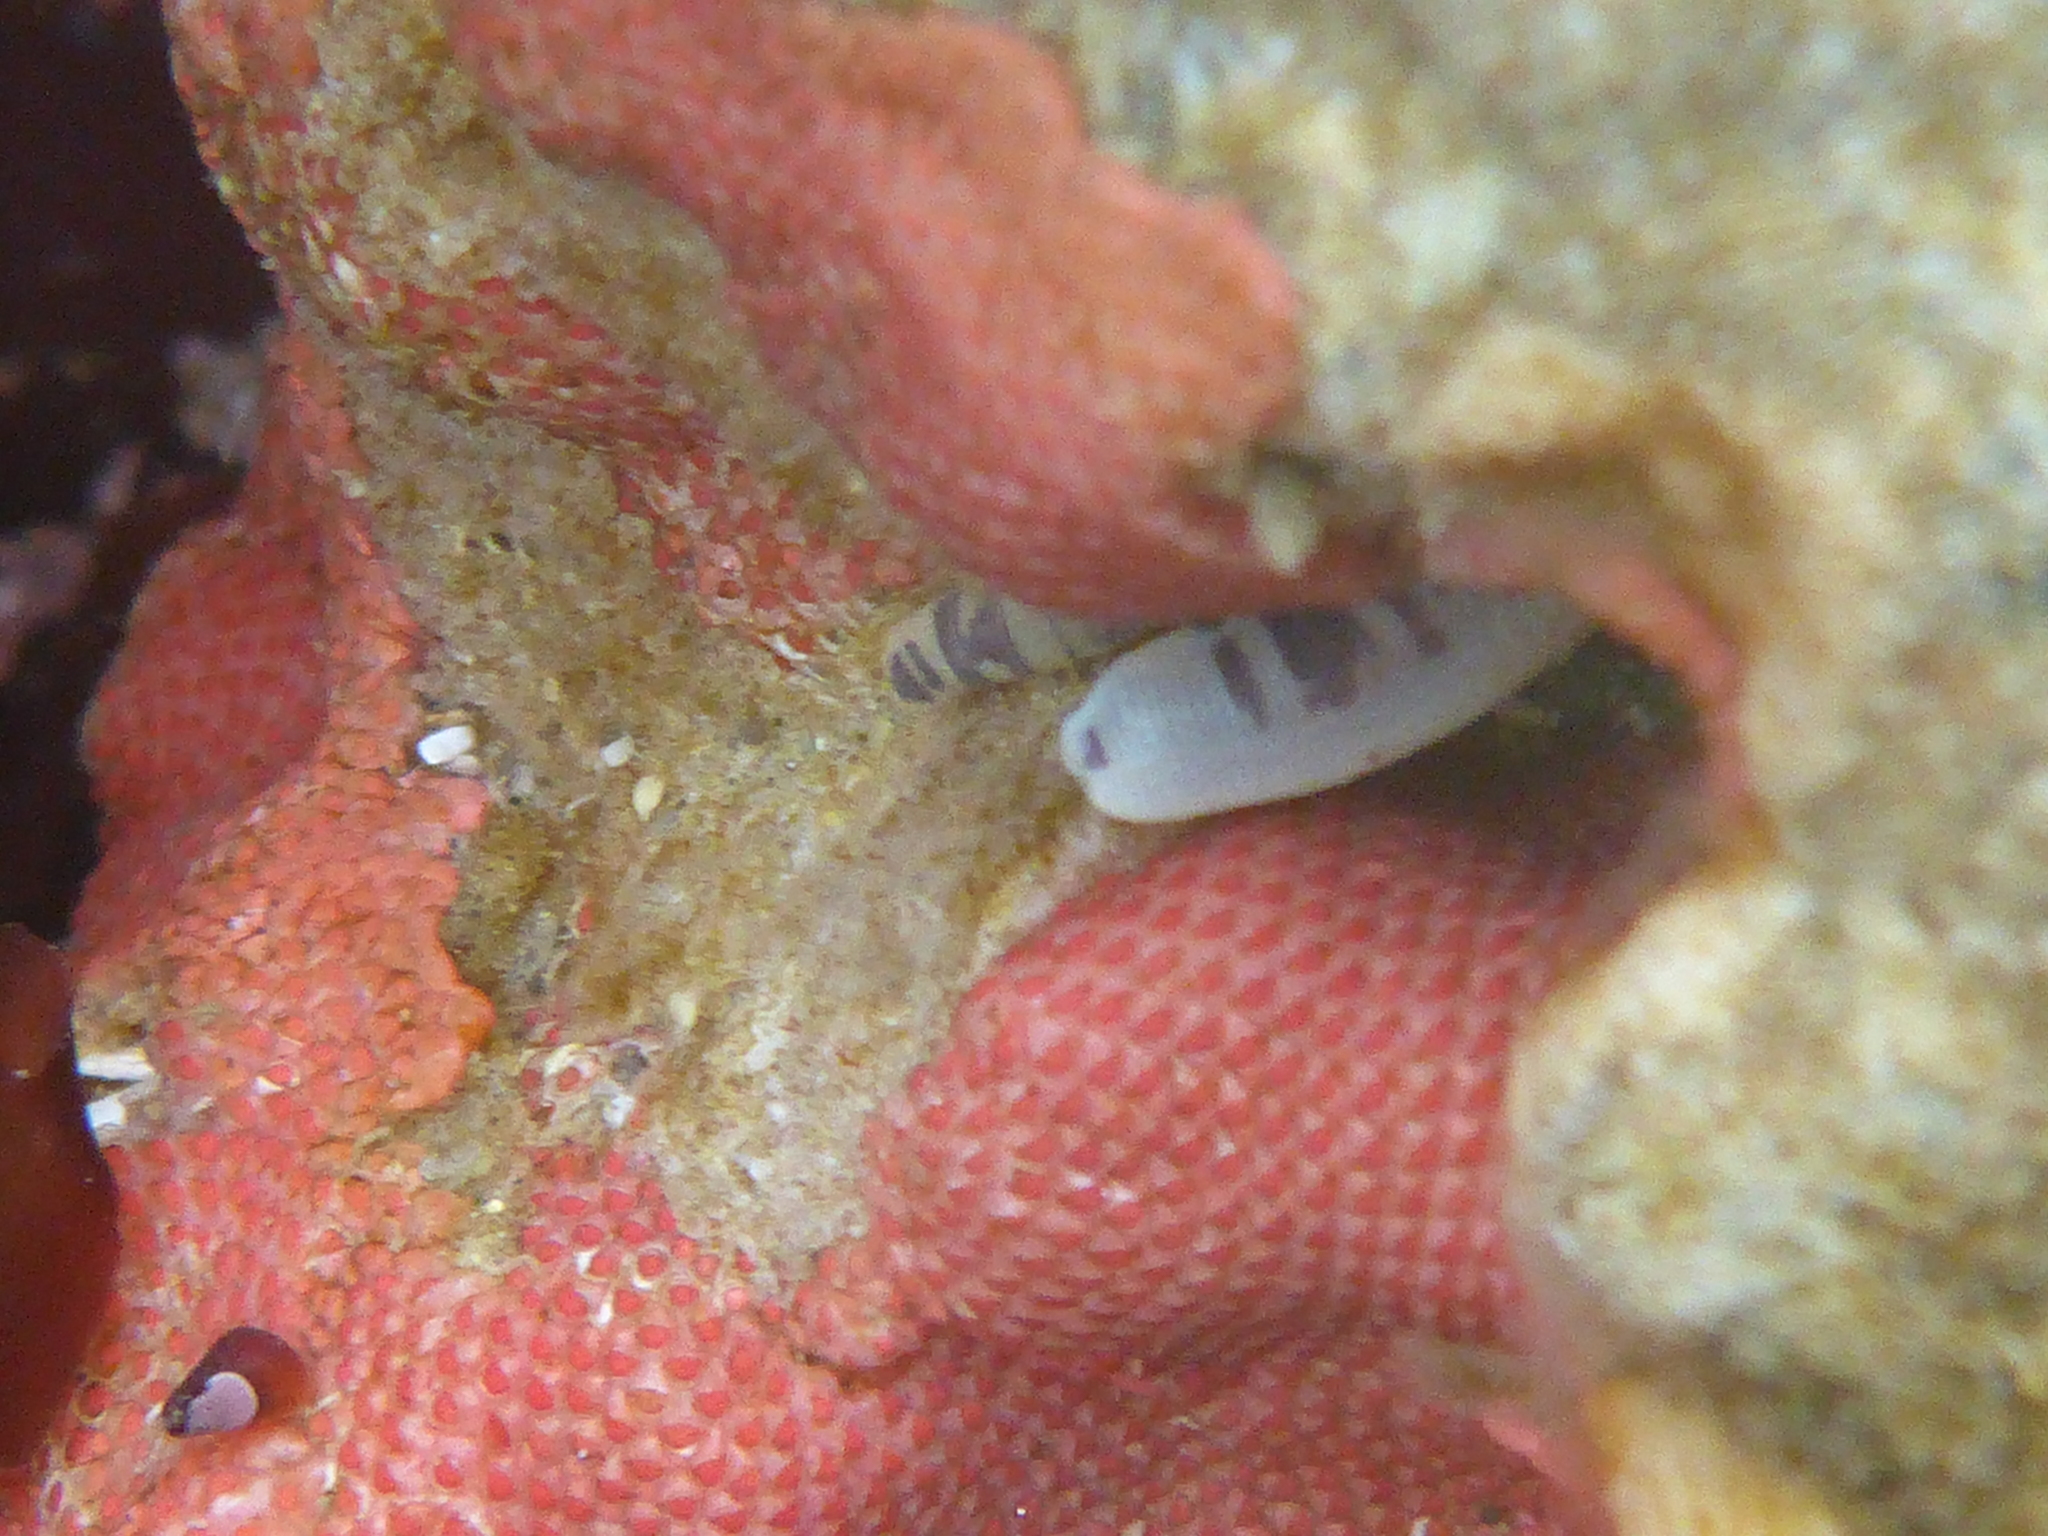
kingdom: Animalia
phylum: Sipuncula
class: Phascolosomatidea
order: Phascolosomatiformes
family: Phascolosomatidae
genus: Phascolosoma
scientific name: Phascolosoma agassizii
